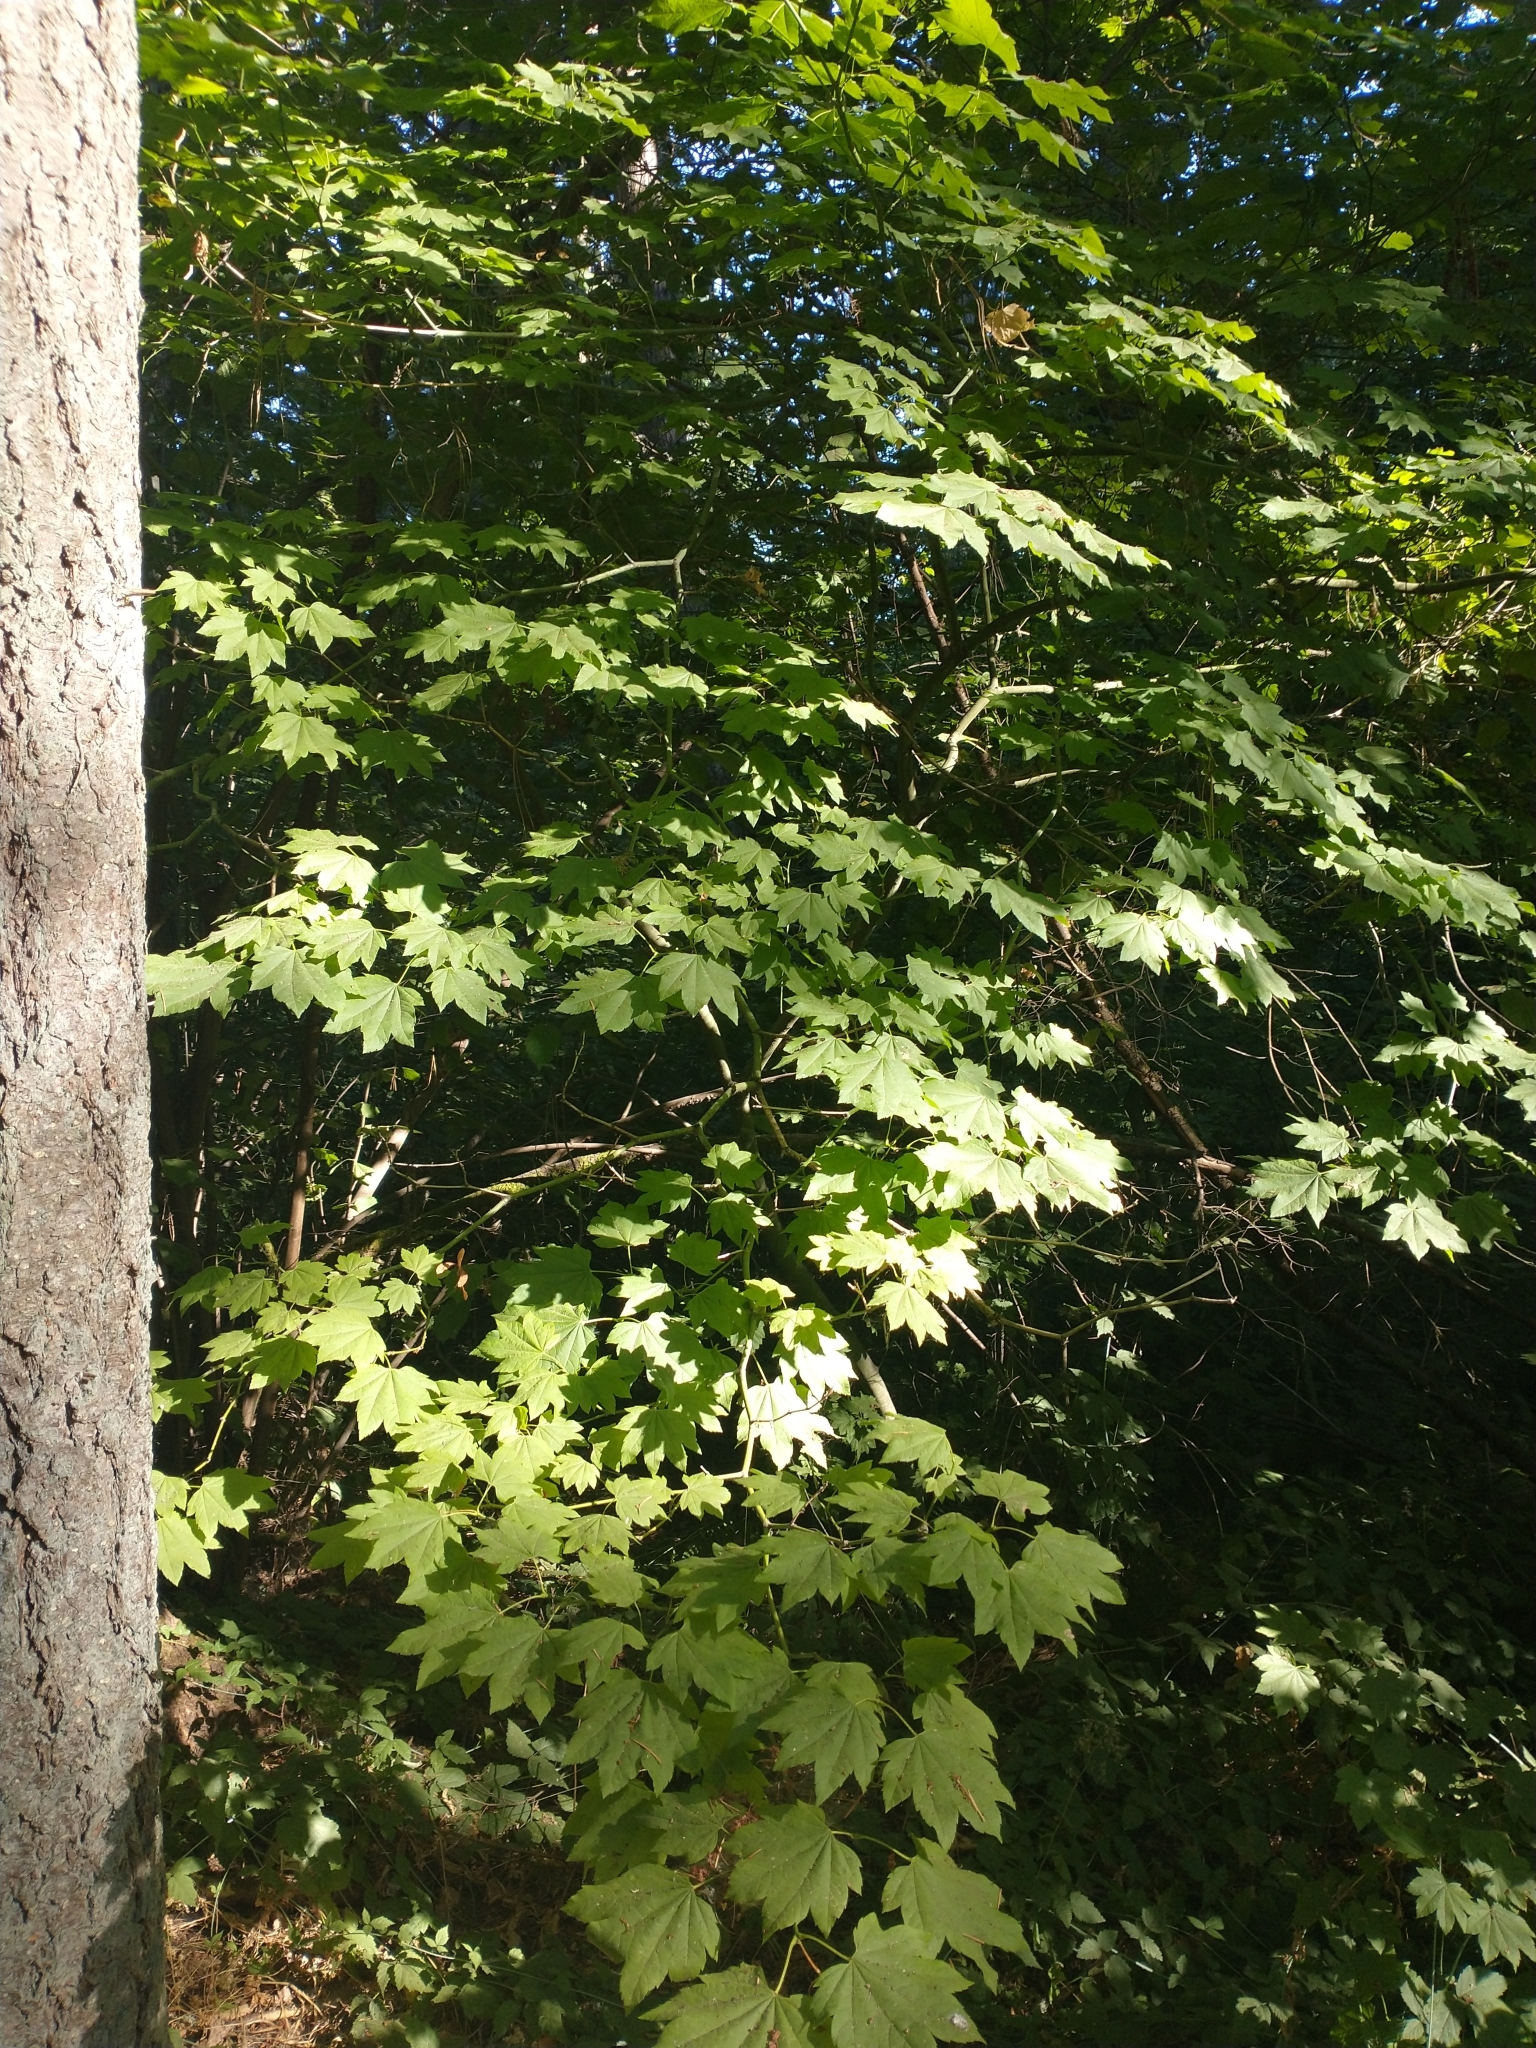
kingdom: Plantae
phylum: Tracheophyta
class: Magnoliopsida
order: Sapindales
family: Sapindaceae
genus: Acer
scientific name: Acer circinatum
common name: Vine maple
